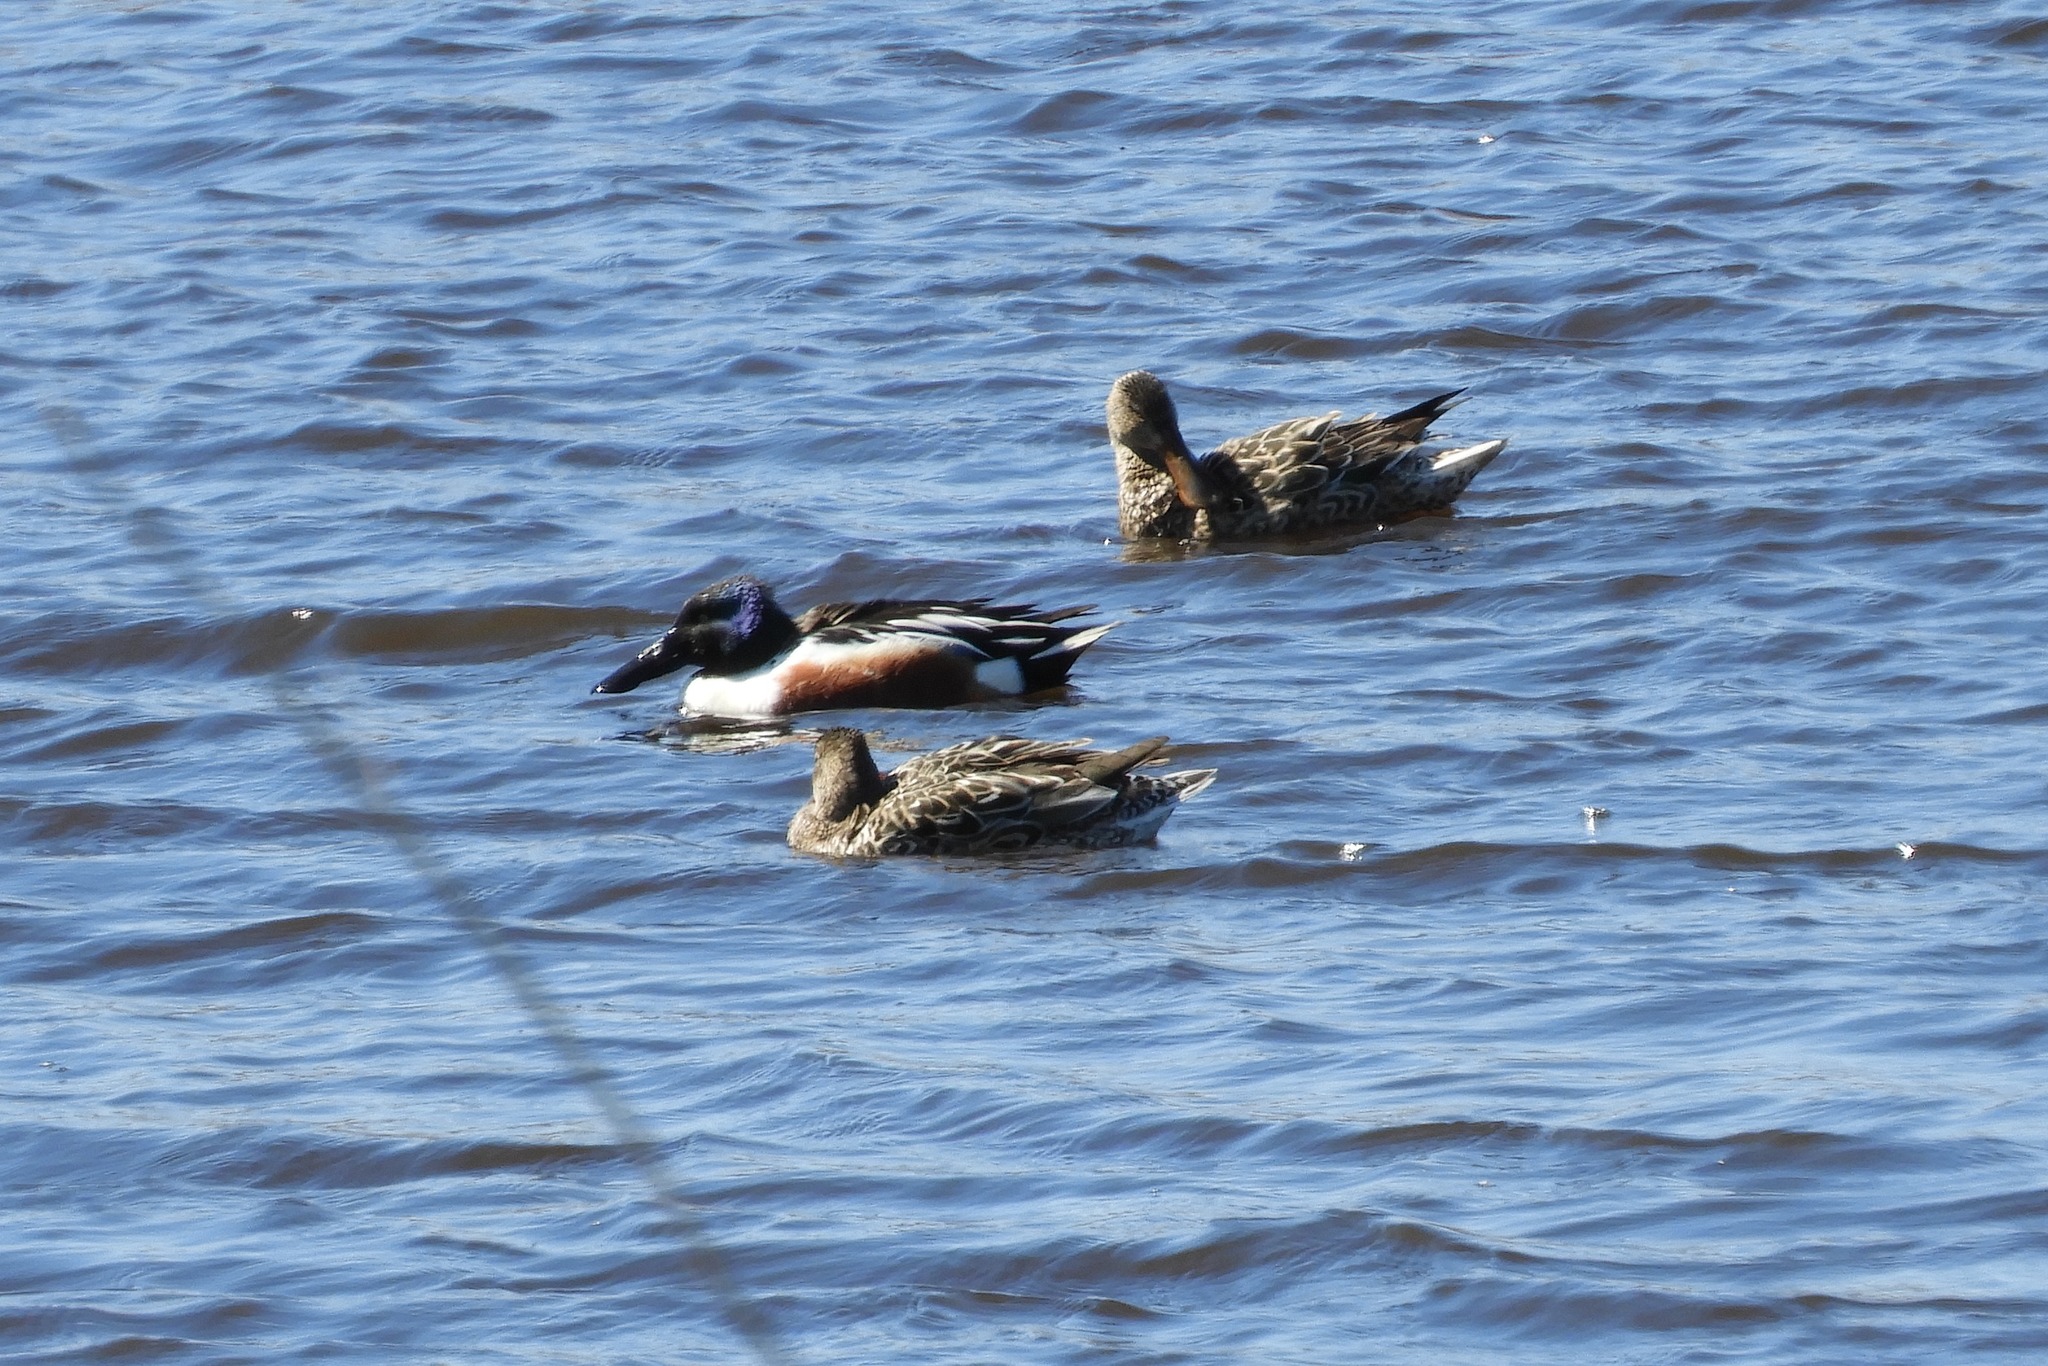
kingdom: Animalia
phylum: Chordata
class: Aves
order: Anseriformes
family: Anatidae
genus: Spatula
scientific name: Spatula clypeata
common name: Northern shoveler
